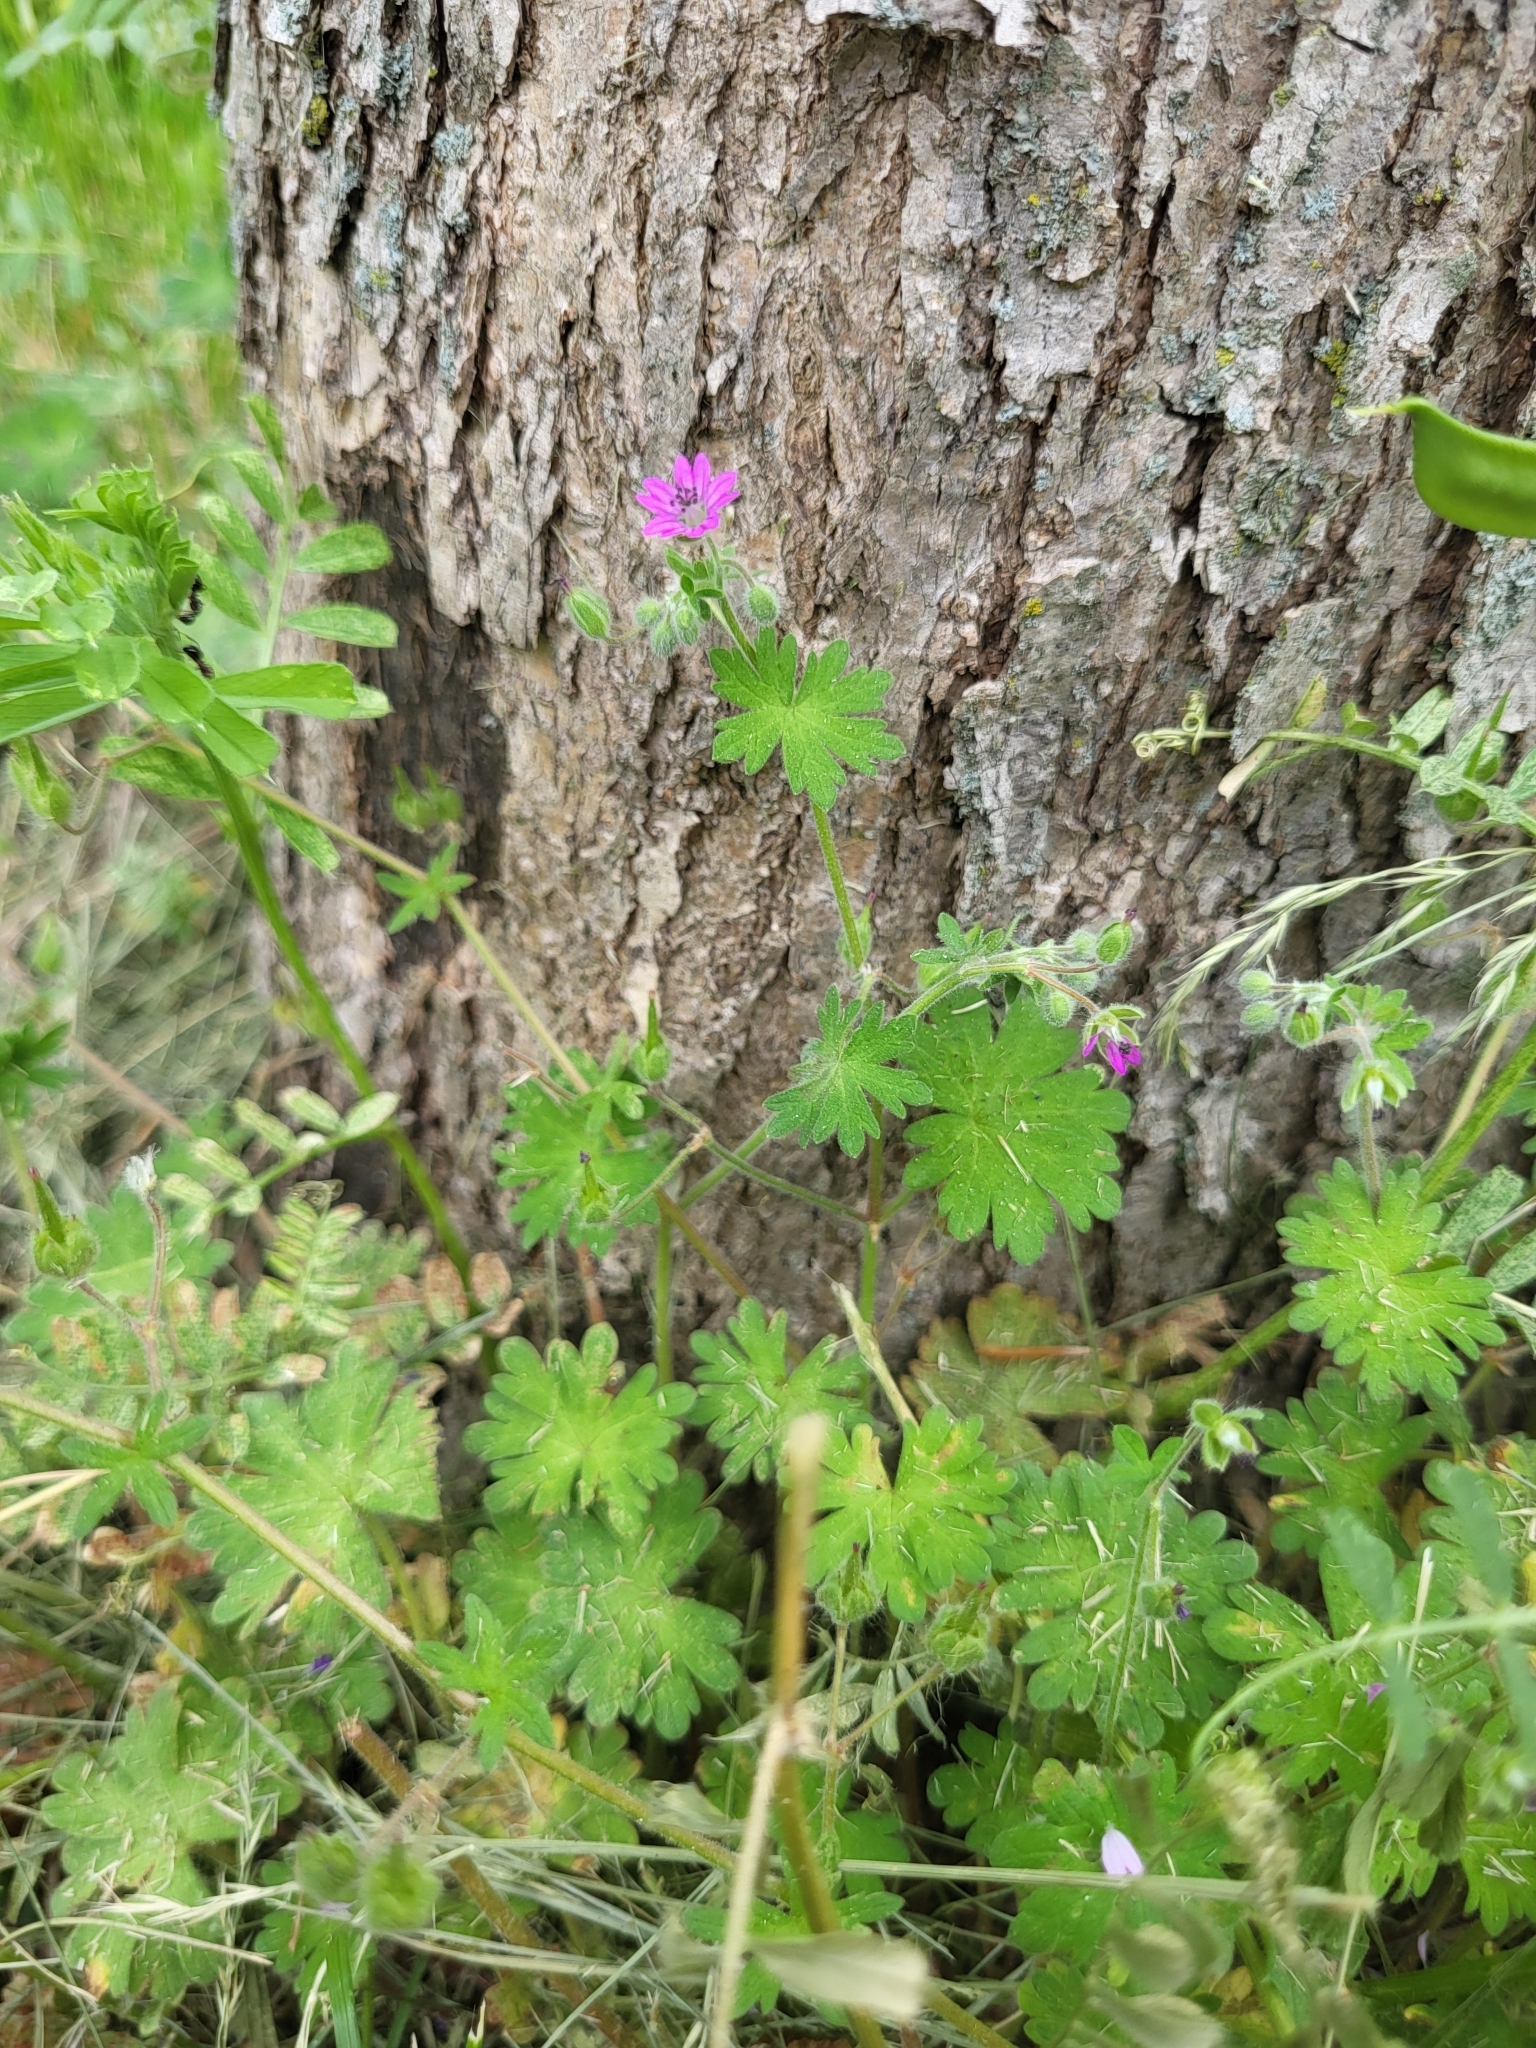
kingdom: Plantae
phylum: Tracheophyta
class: Magnoliopsida
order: Geraniales
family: Geraniaceae
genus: Geranium
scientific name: Geranium molle
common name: Dove's-foot crane's-bill
